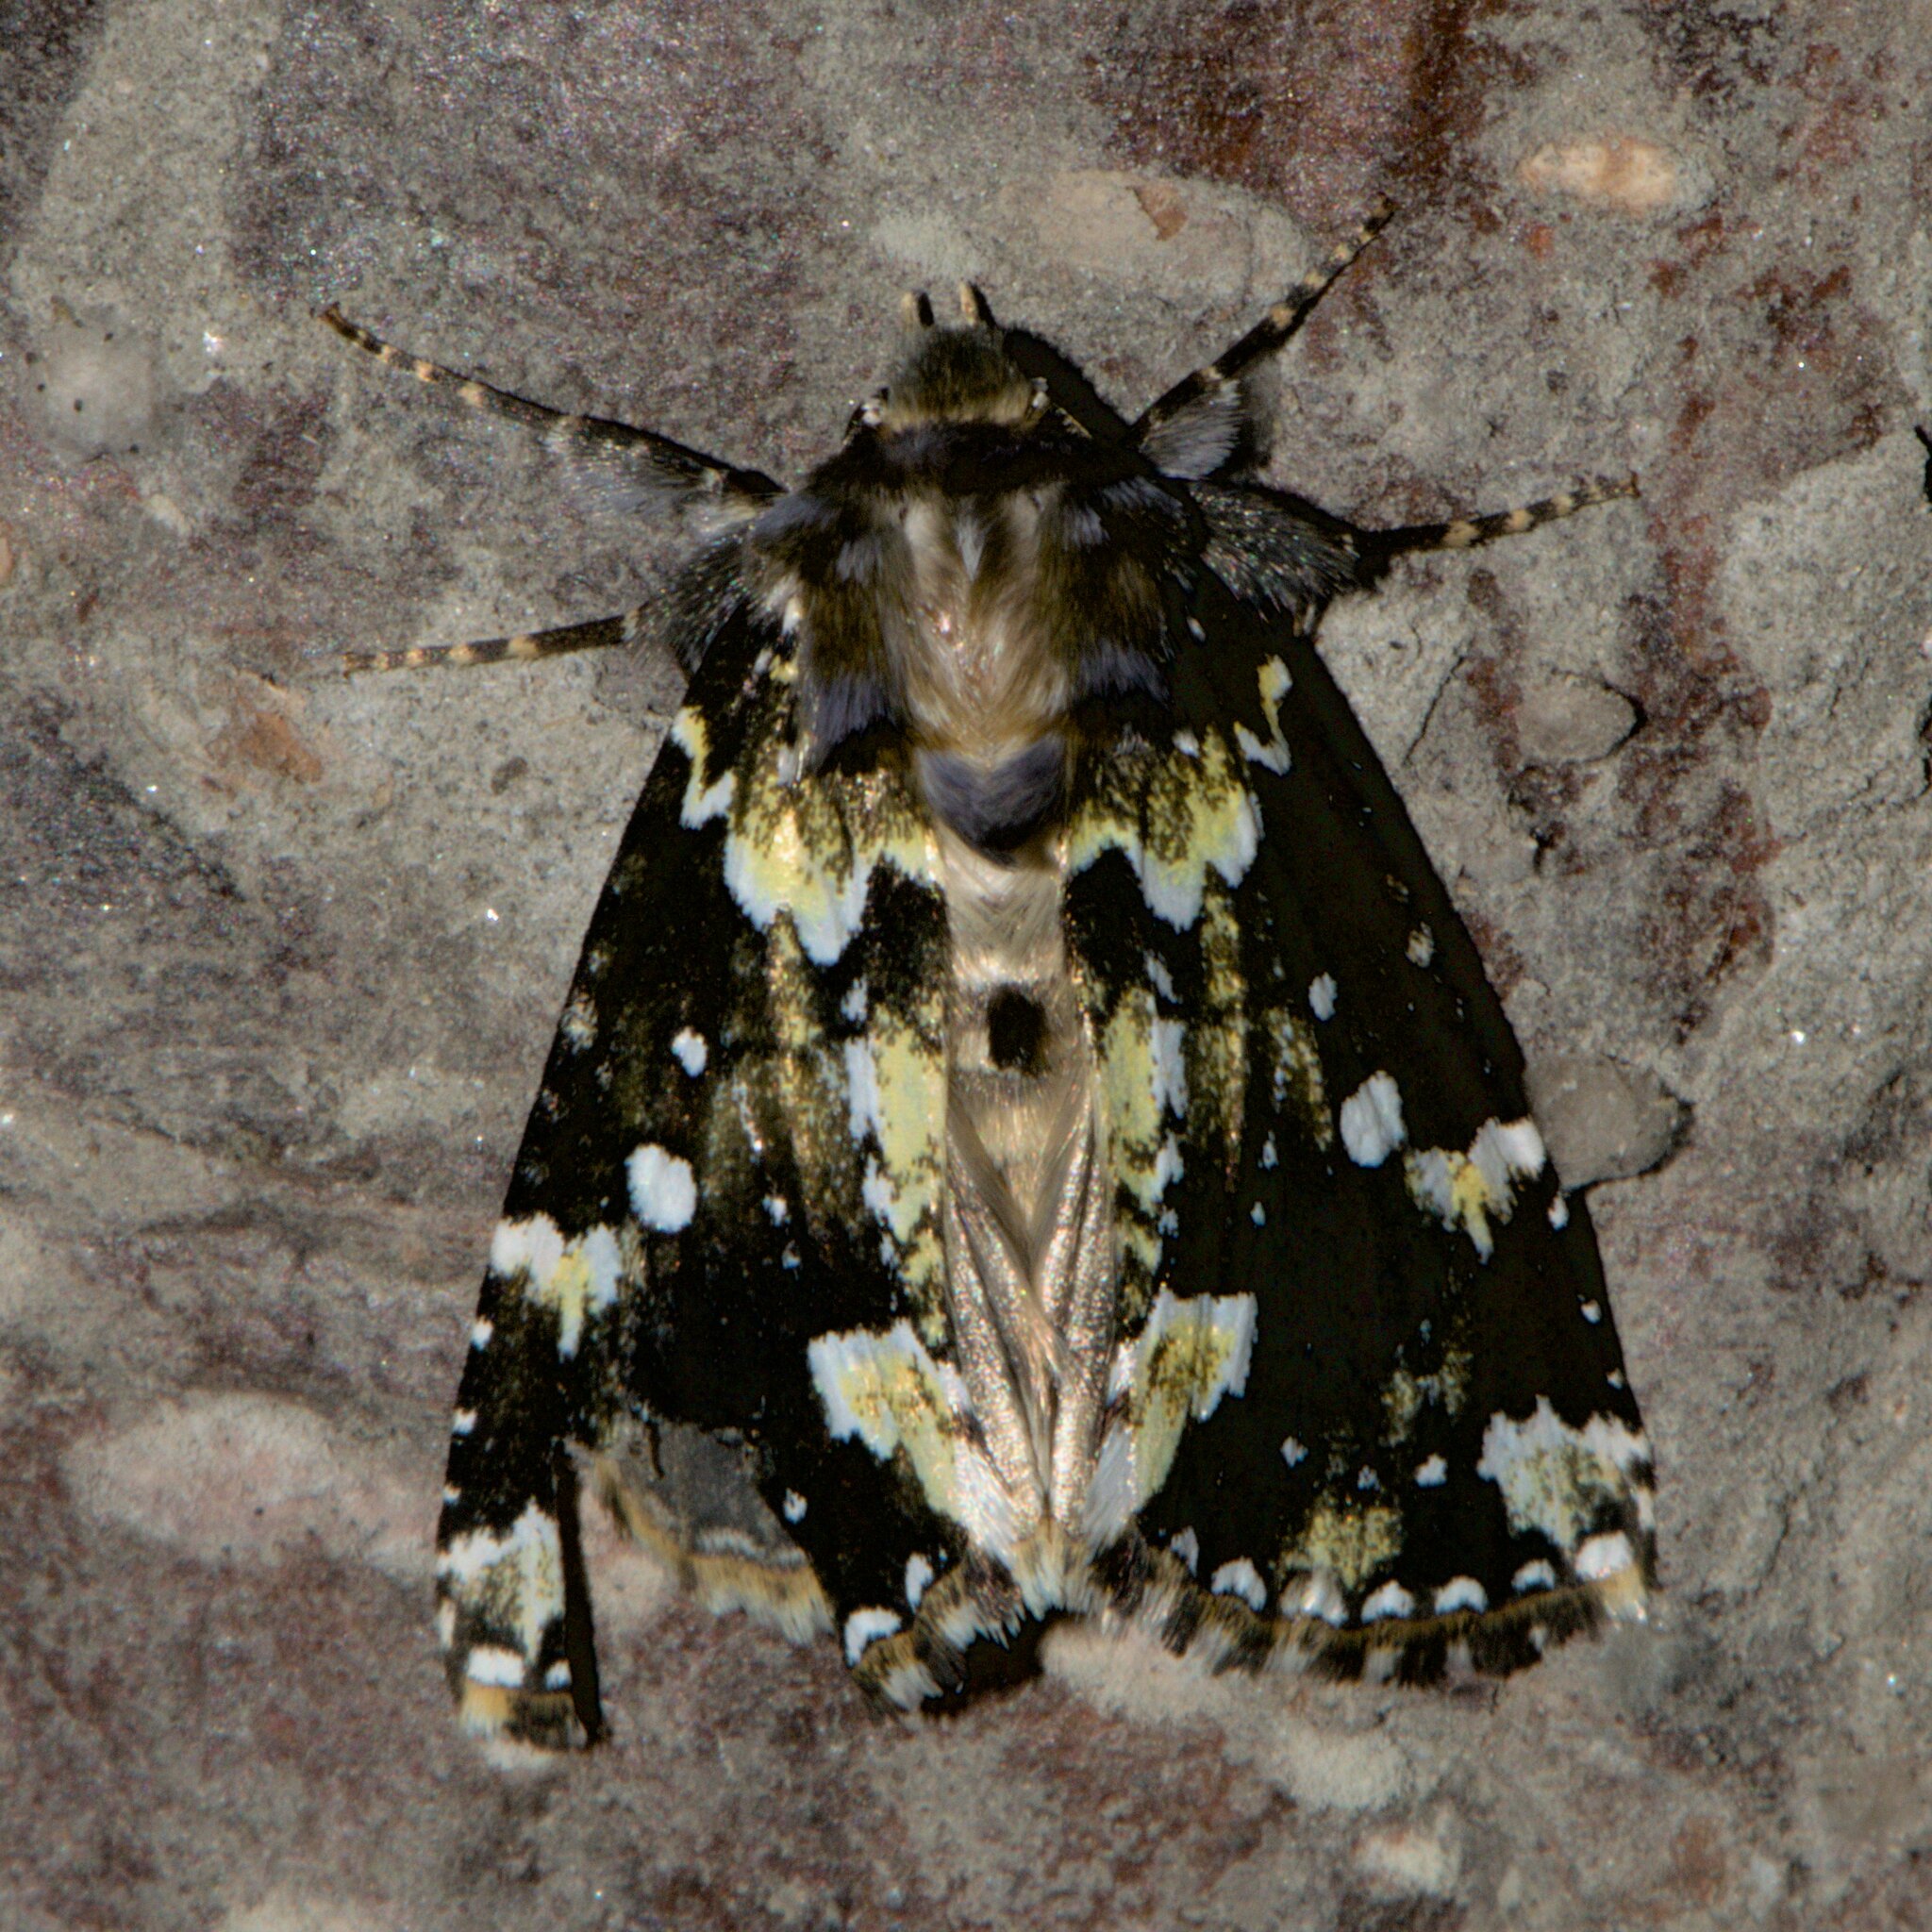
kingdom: Animalia
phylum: Arthropoda
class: Insecta
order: Lepidoptera
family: Drepanidae
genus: Gaurena
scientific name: Gaurena florens
